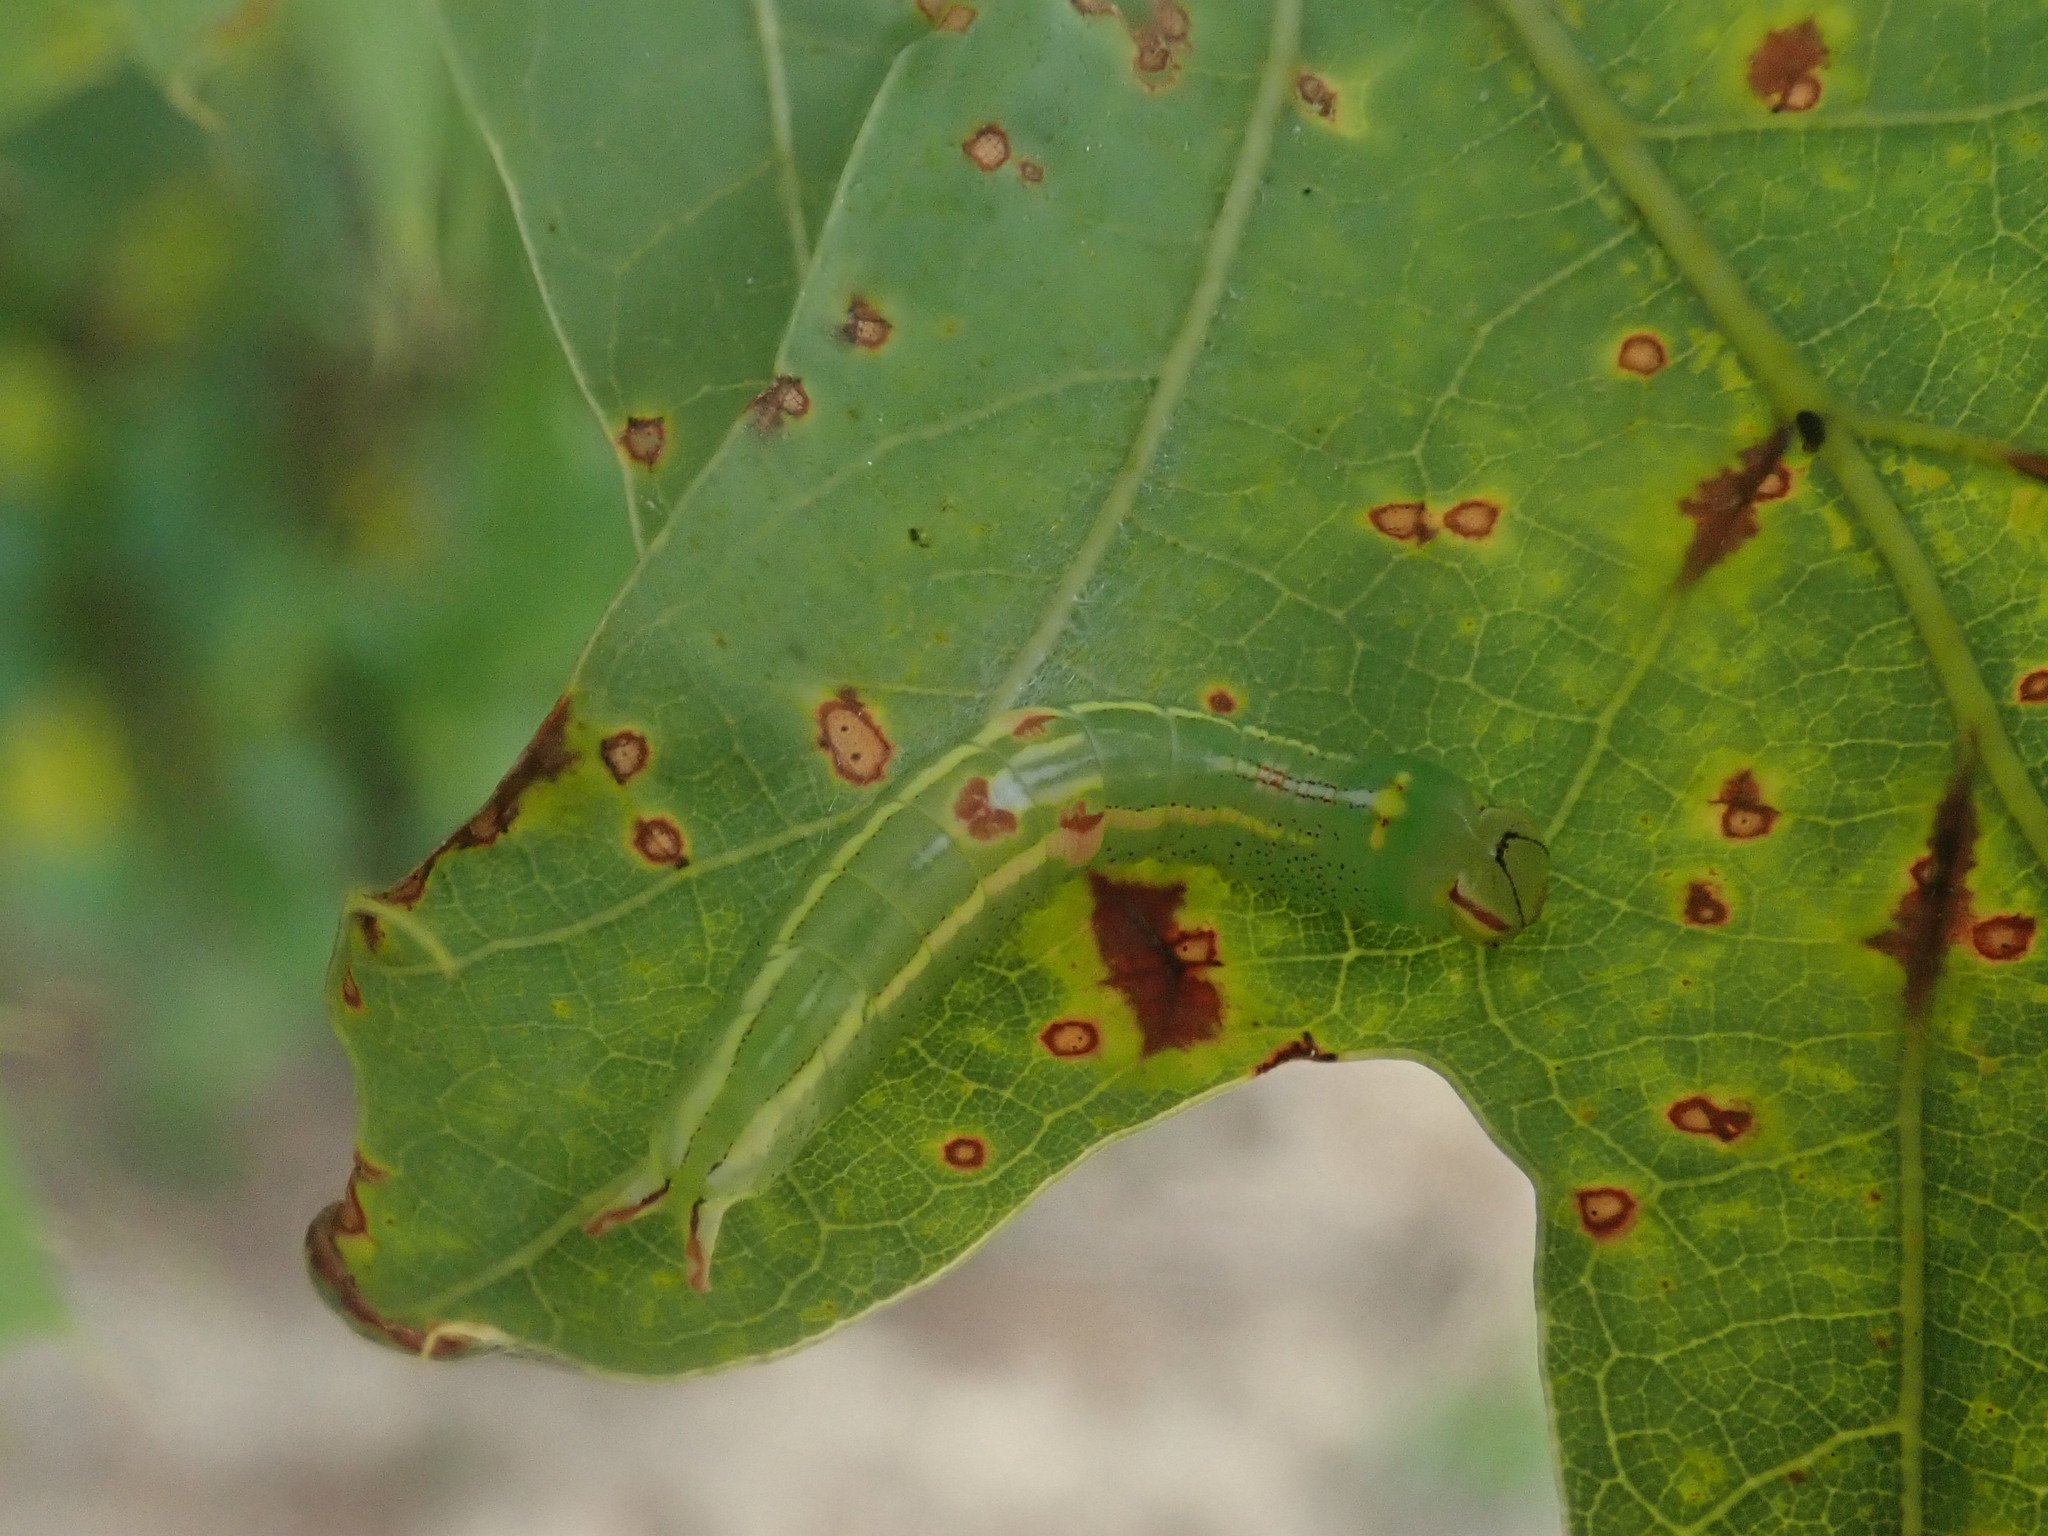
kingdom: Animalia
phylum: Arthropoda
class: Insecta
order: Lepidoptera
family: Notodontidae
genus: Disphragis
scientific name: Disphragis Cecrita guttivitta
